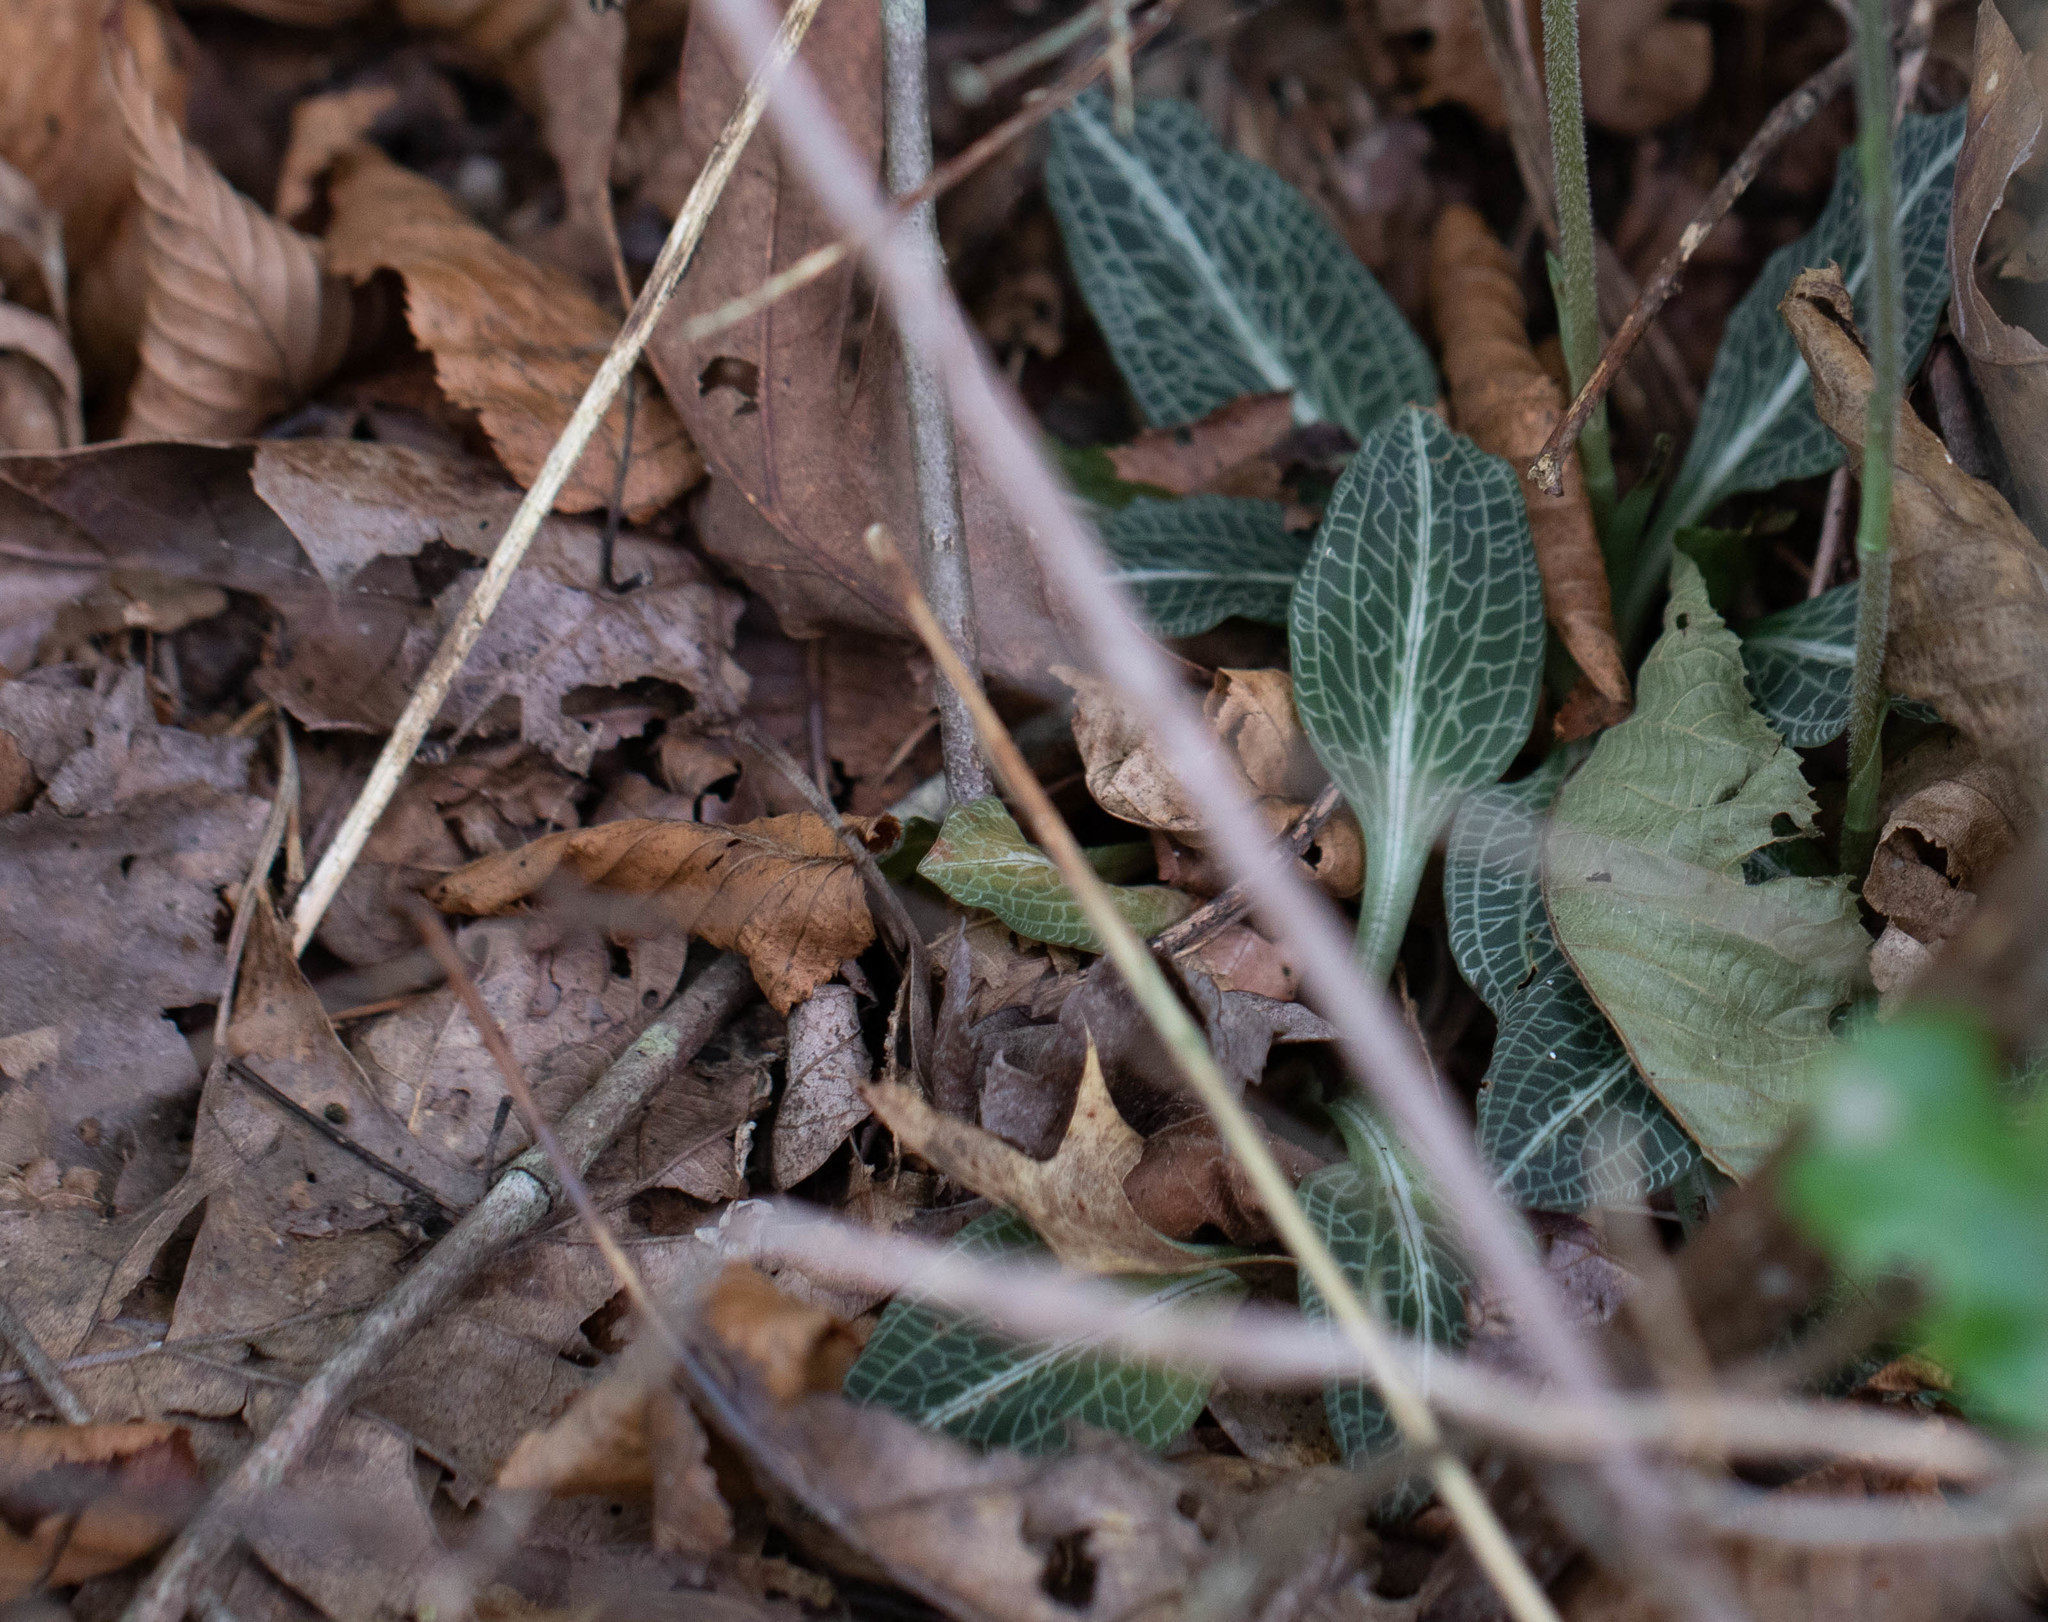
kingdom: Plantae
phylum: Tracheophyta
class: Liliopsida
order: Asparagales
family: Orchidaceae
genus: Goodyera
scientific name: Goodyera pubescens
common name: Downy rattlesnake-plantain
